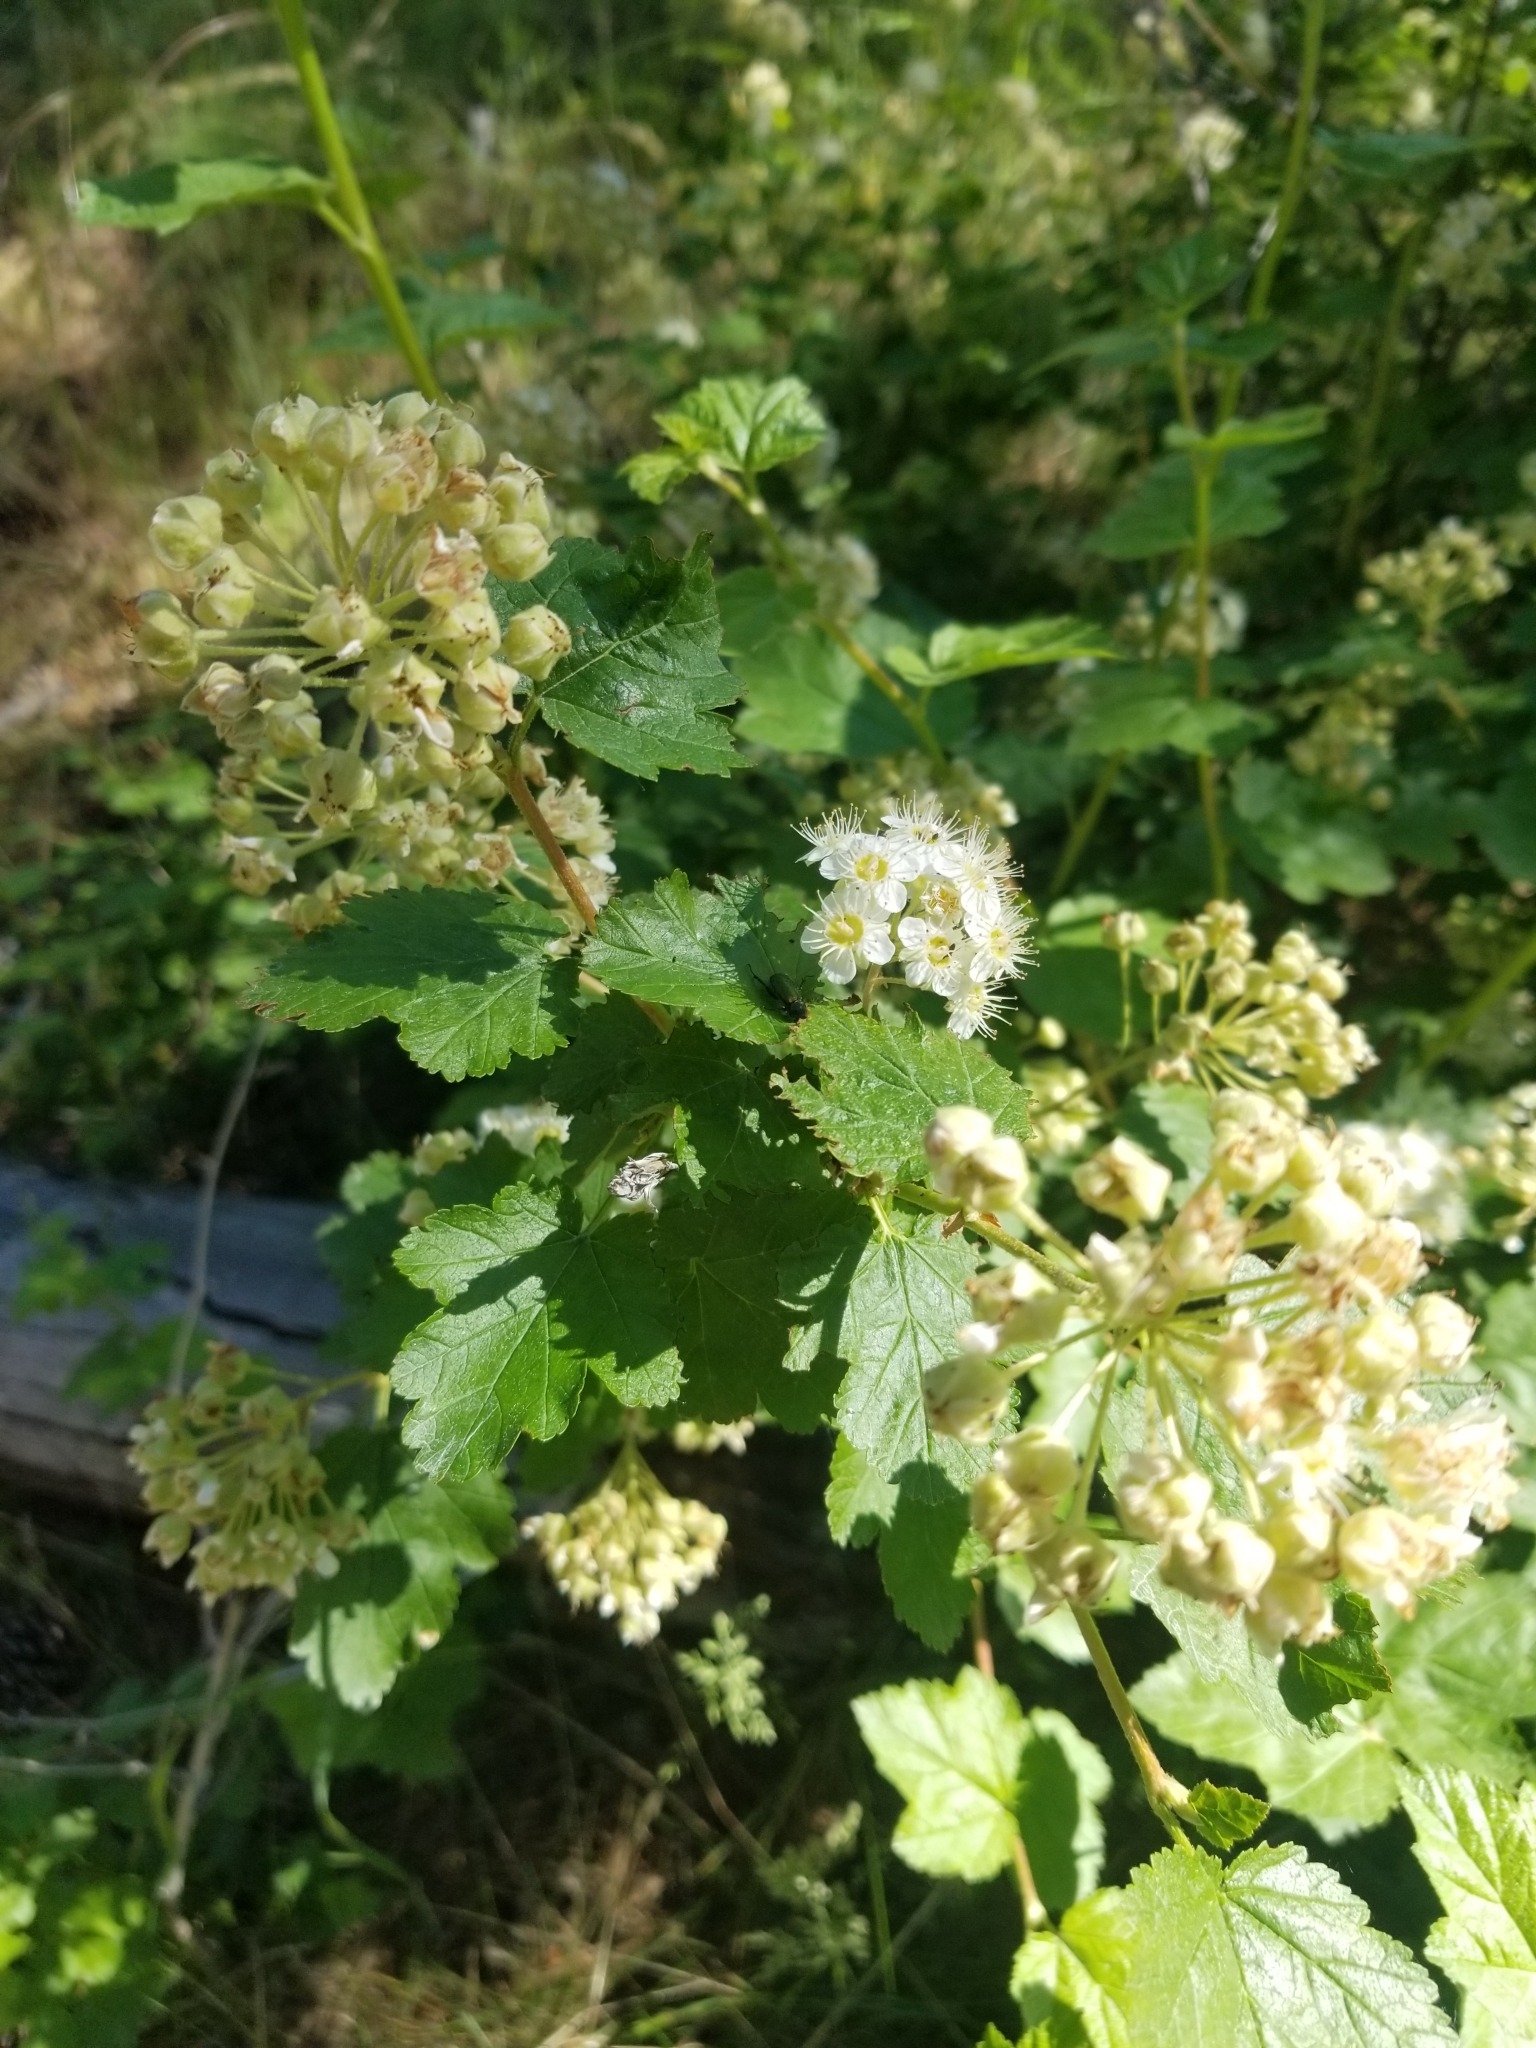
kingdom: Plantae
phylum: Tracheophyta
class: Magnoliopsida
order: Rosales
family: Rosaceae
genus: Physocarpus
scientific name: Physocarpus malvaceus
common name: Mallow ninebark
